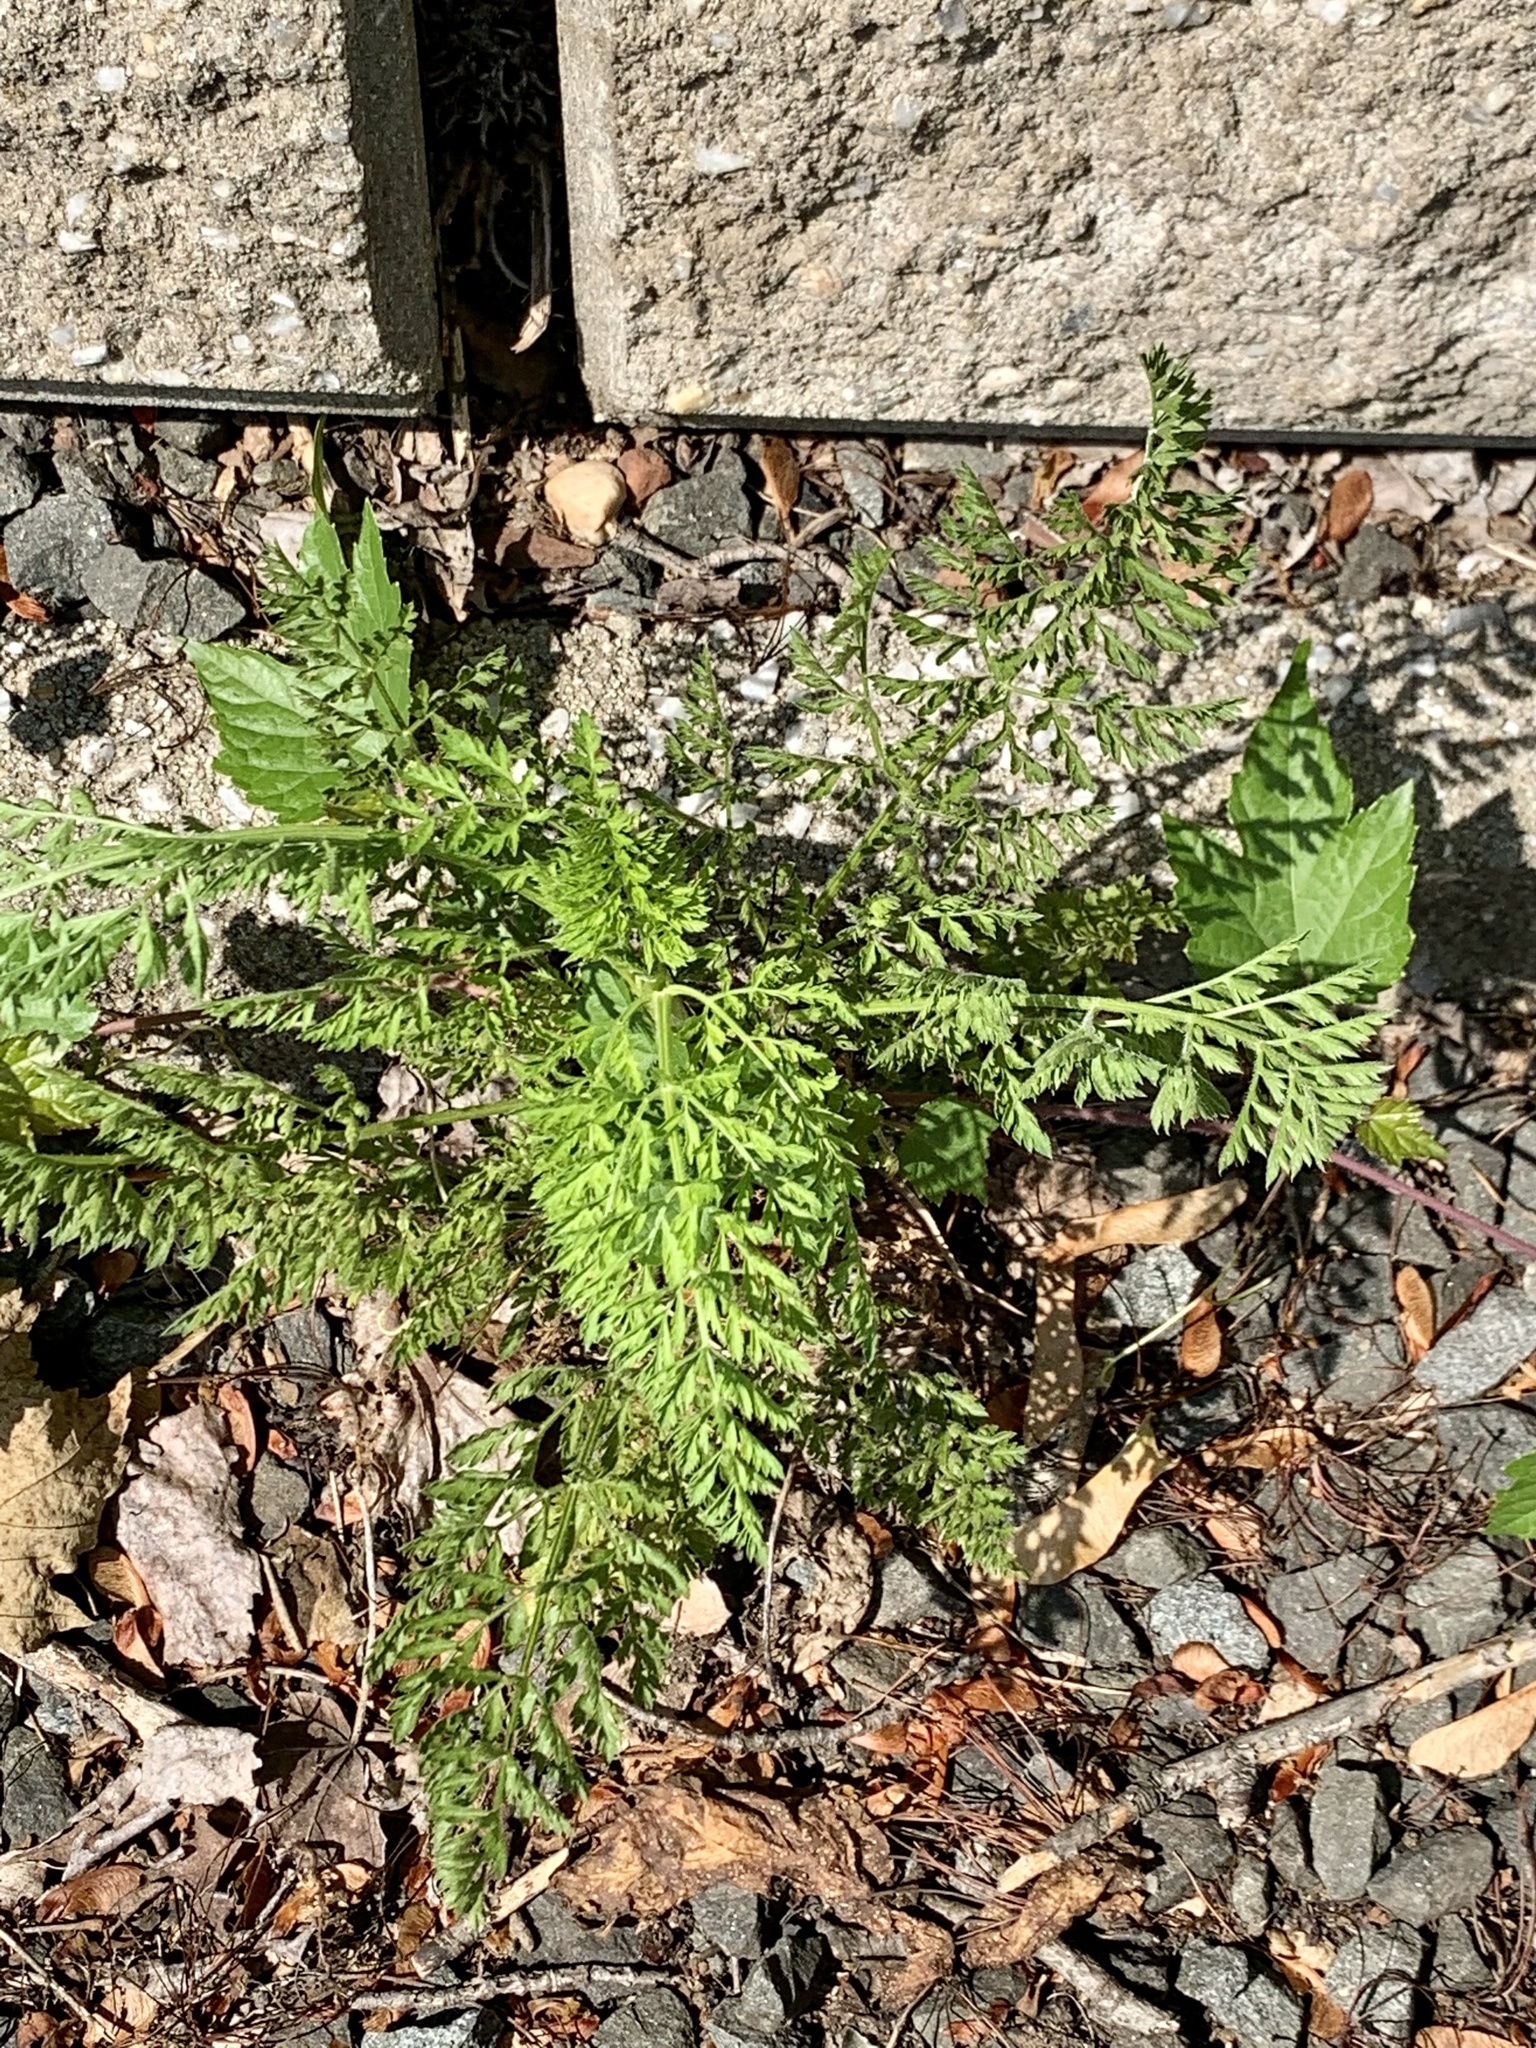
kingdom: Plantae
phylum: Tracheophyta
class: Magnoliopsida
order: Apiales
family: Apiaceae
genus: Daucus
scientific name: Daucus carota
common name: Wild carrot
